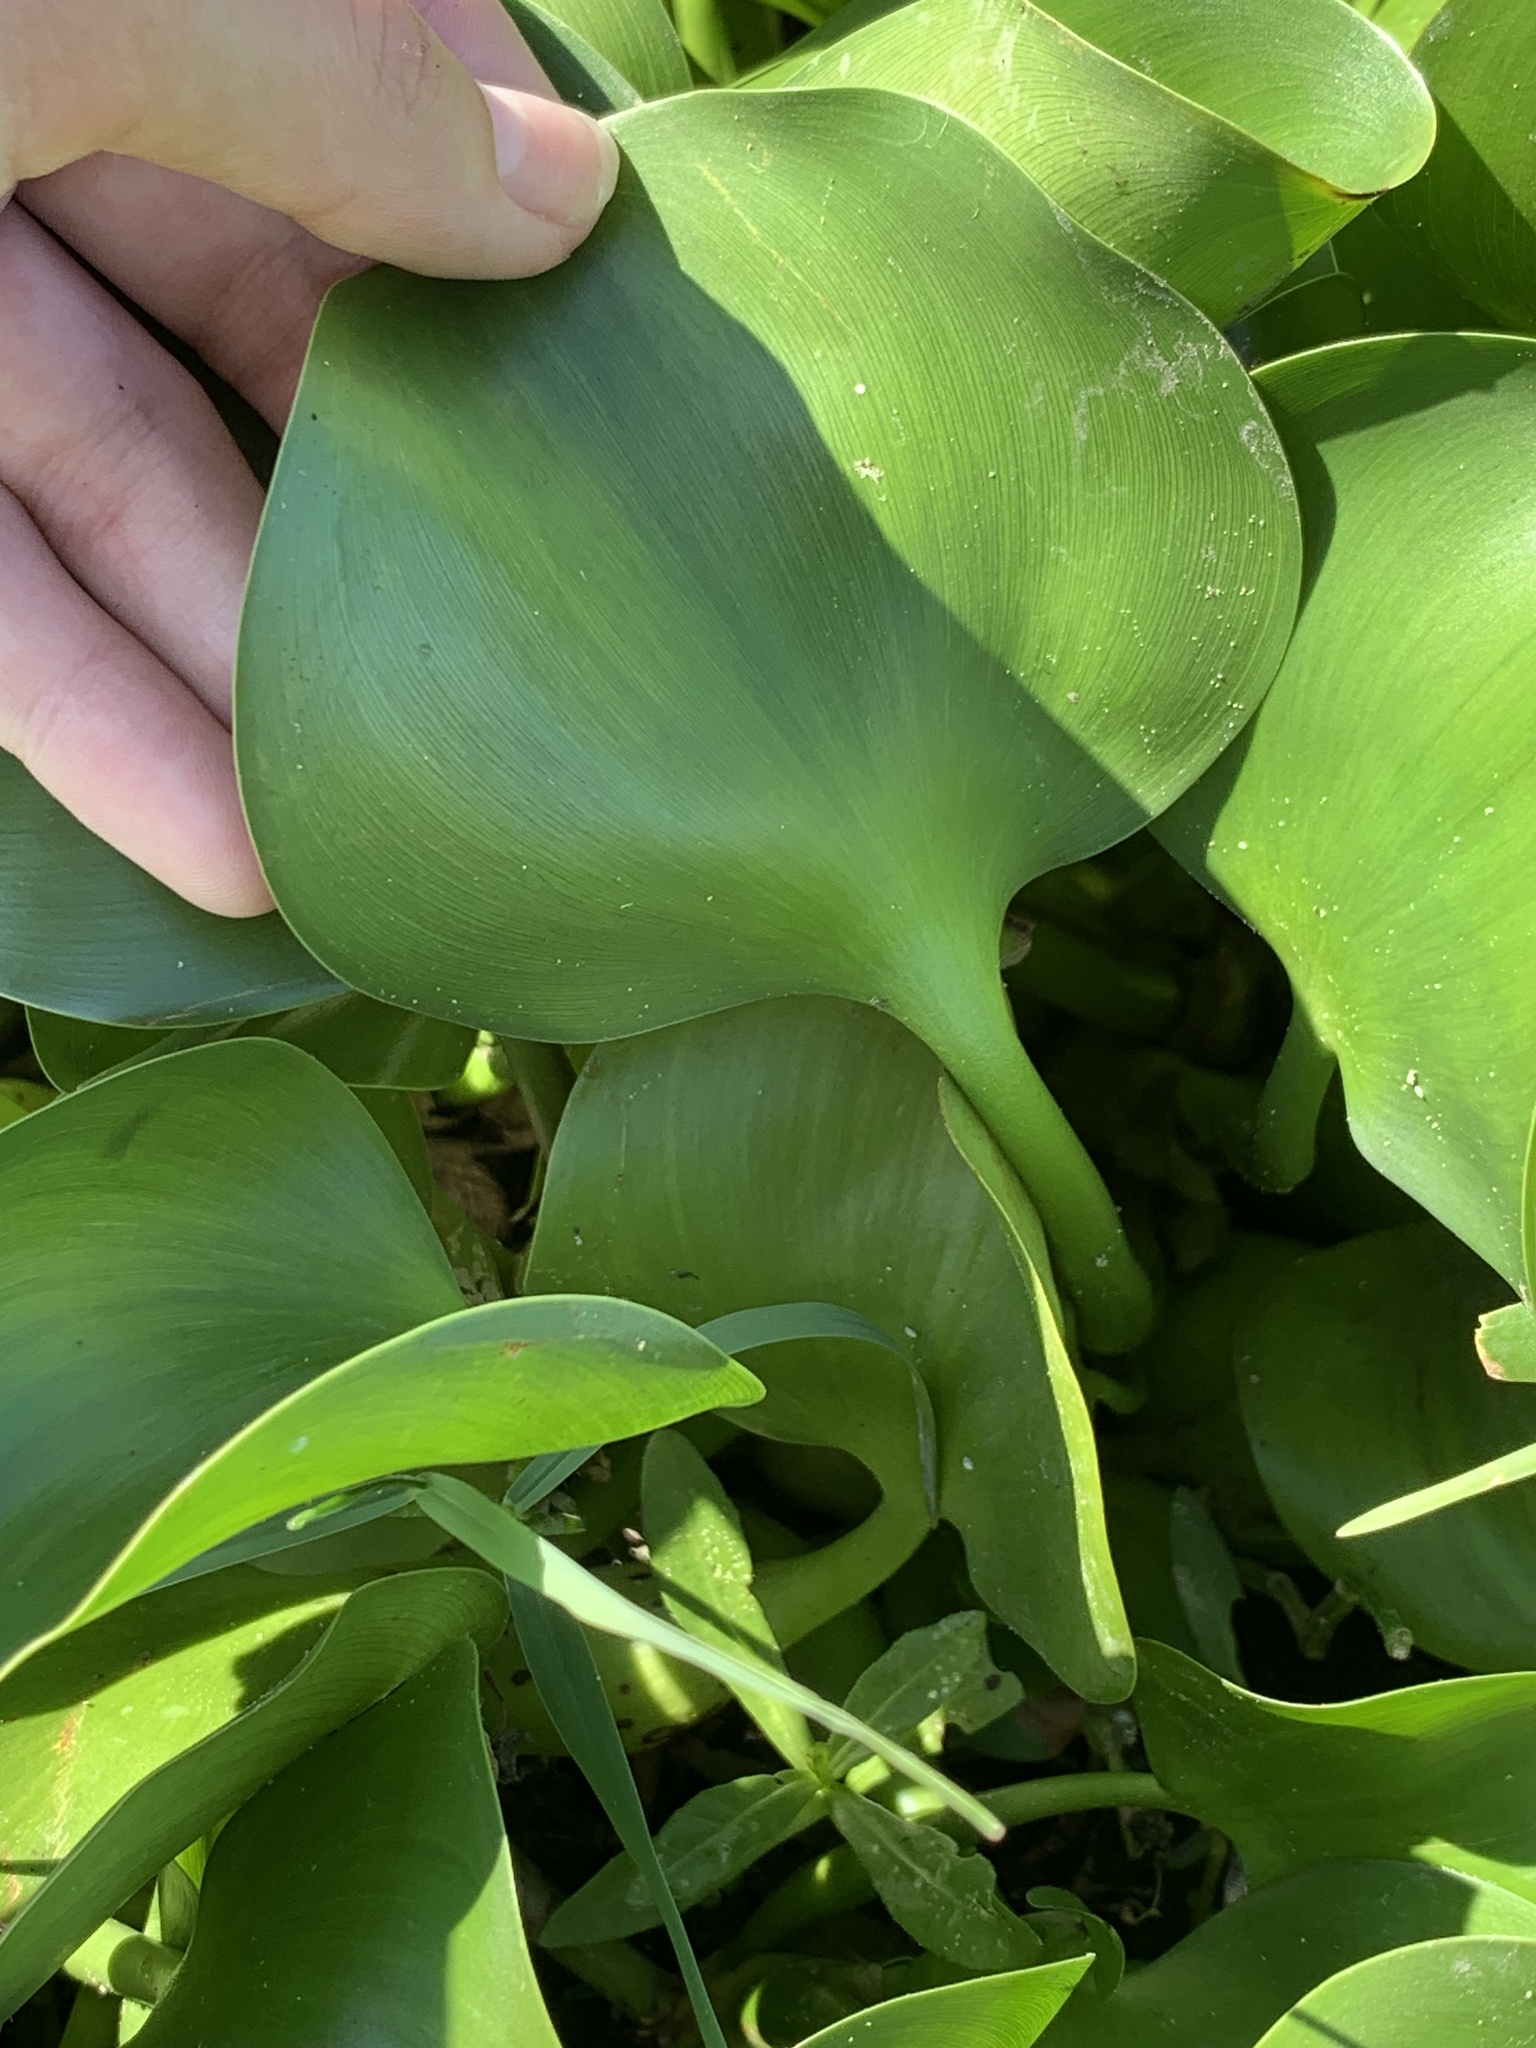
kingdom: Plantae
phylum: Tracheophyta
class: Liliopsida
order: Commelinales
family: Pontederiaceae
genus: Pontederia
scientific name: Pontederia crassipes
